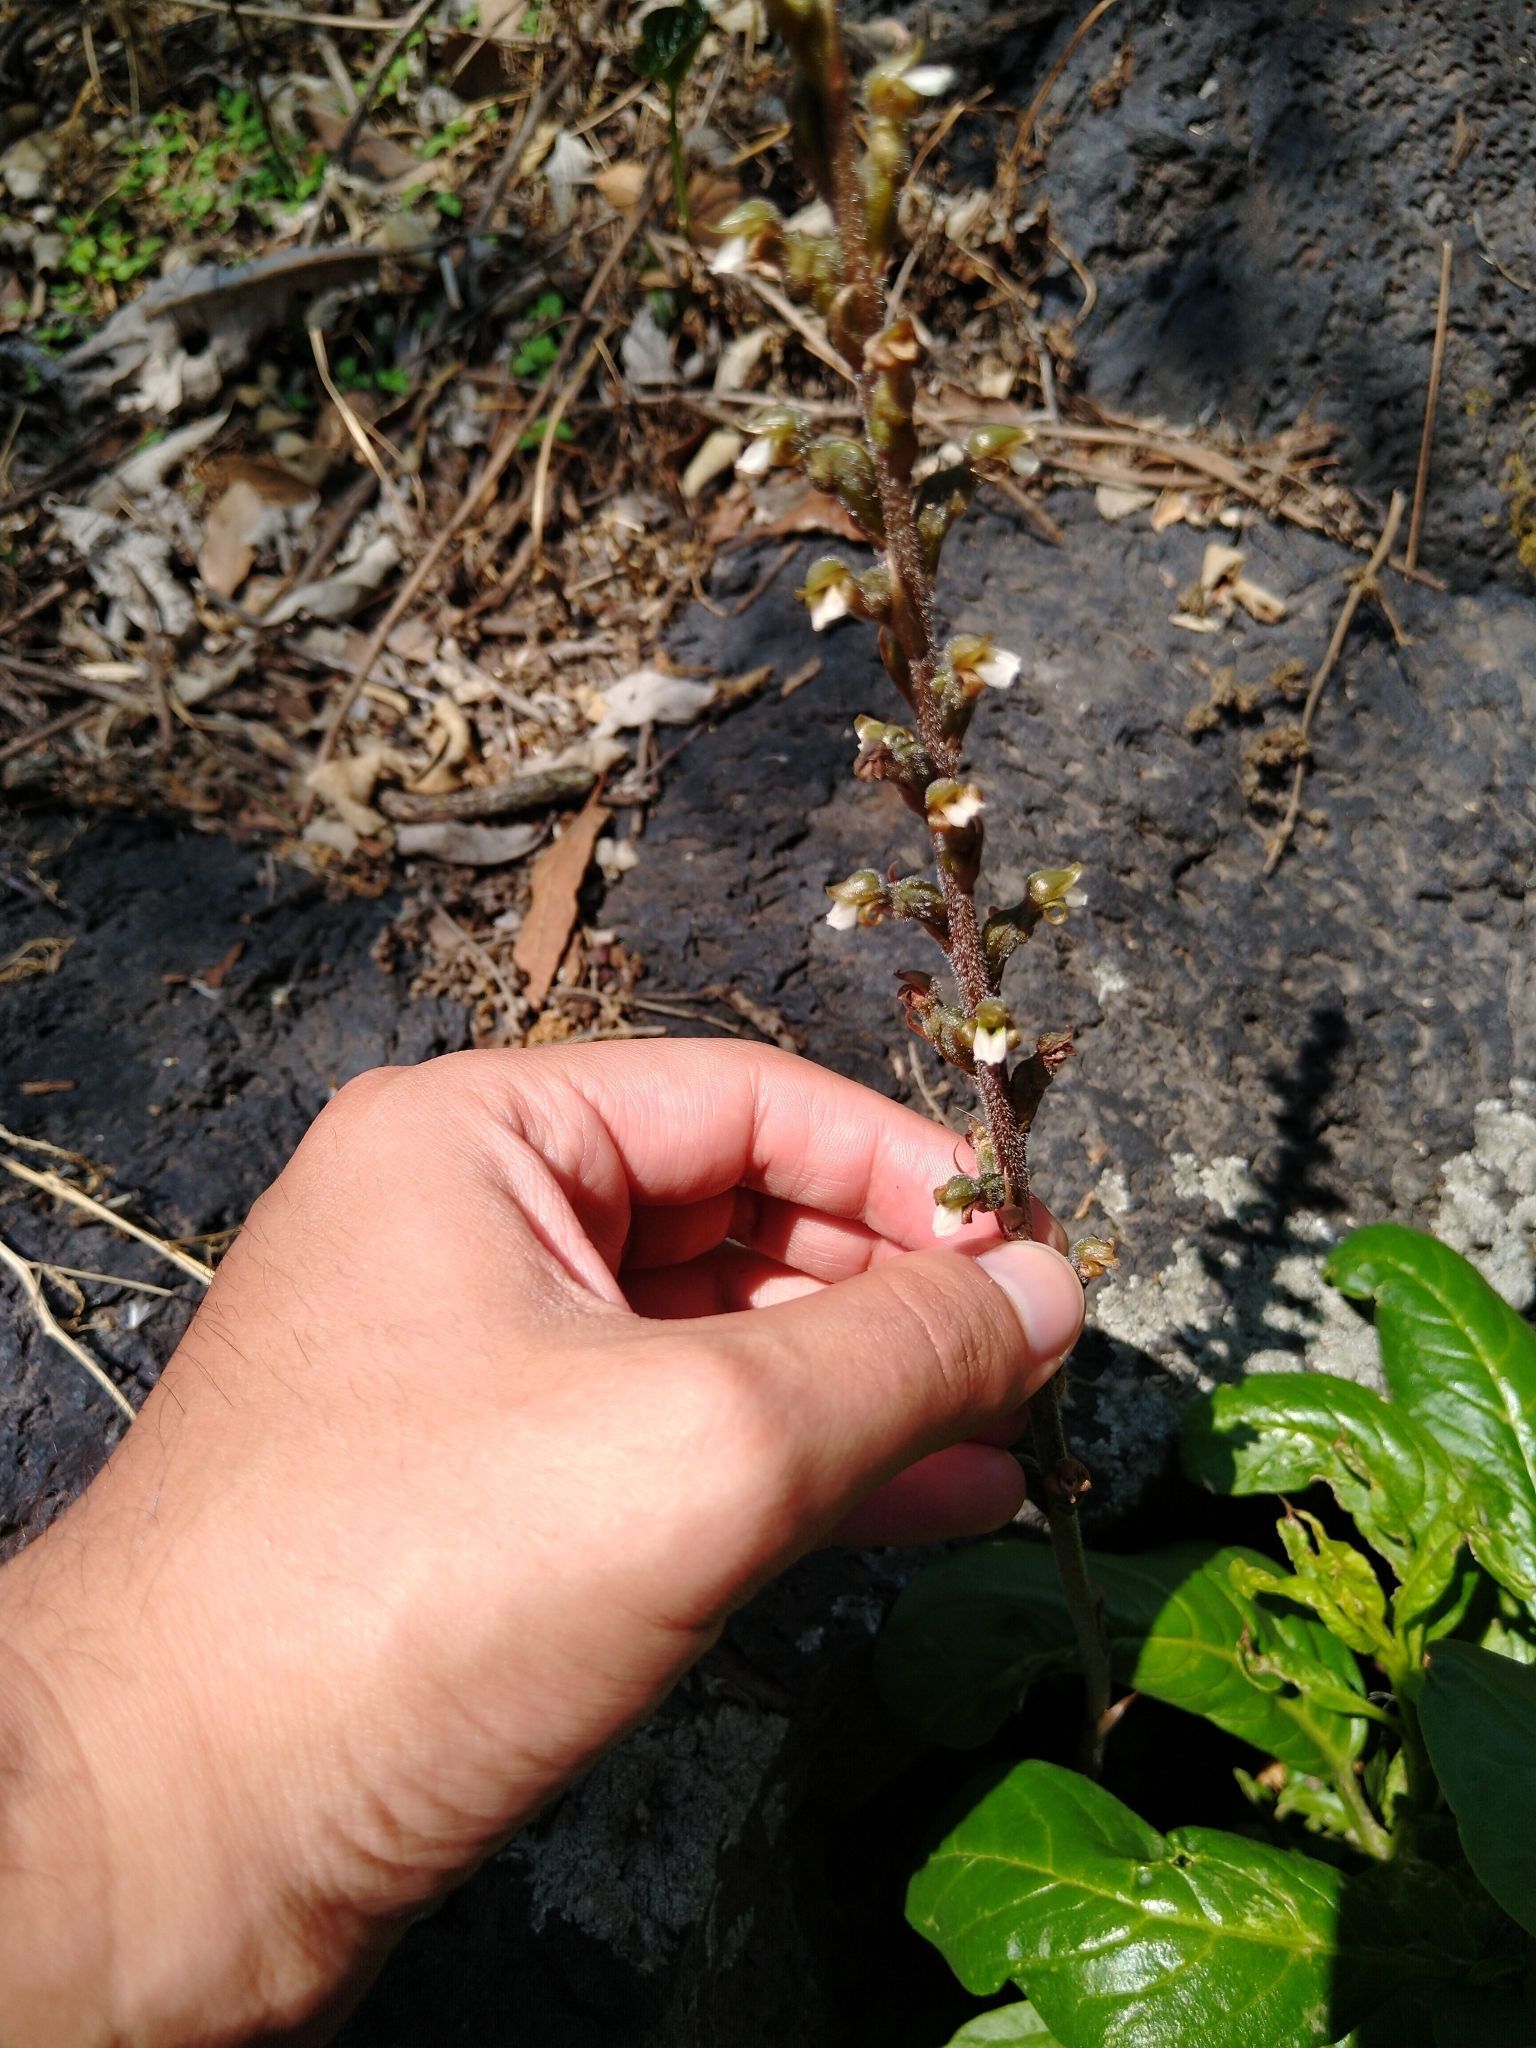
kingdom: Plantae
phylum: Tracheophyta
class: Liliopsida
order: Asparagales
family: Orchidaceae
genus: Sarcoglottis
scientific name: Sarcoglottis schaffneri
